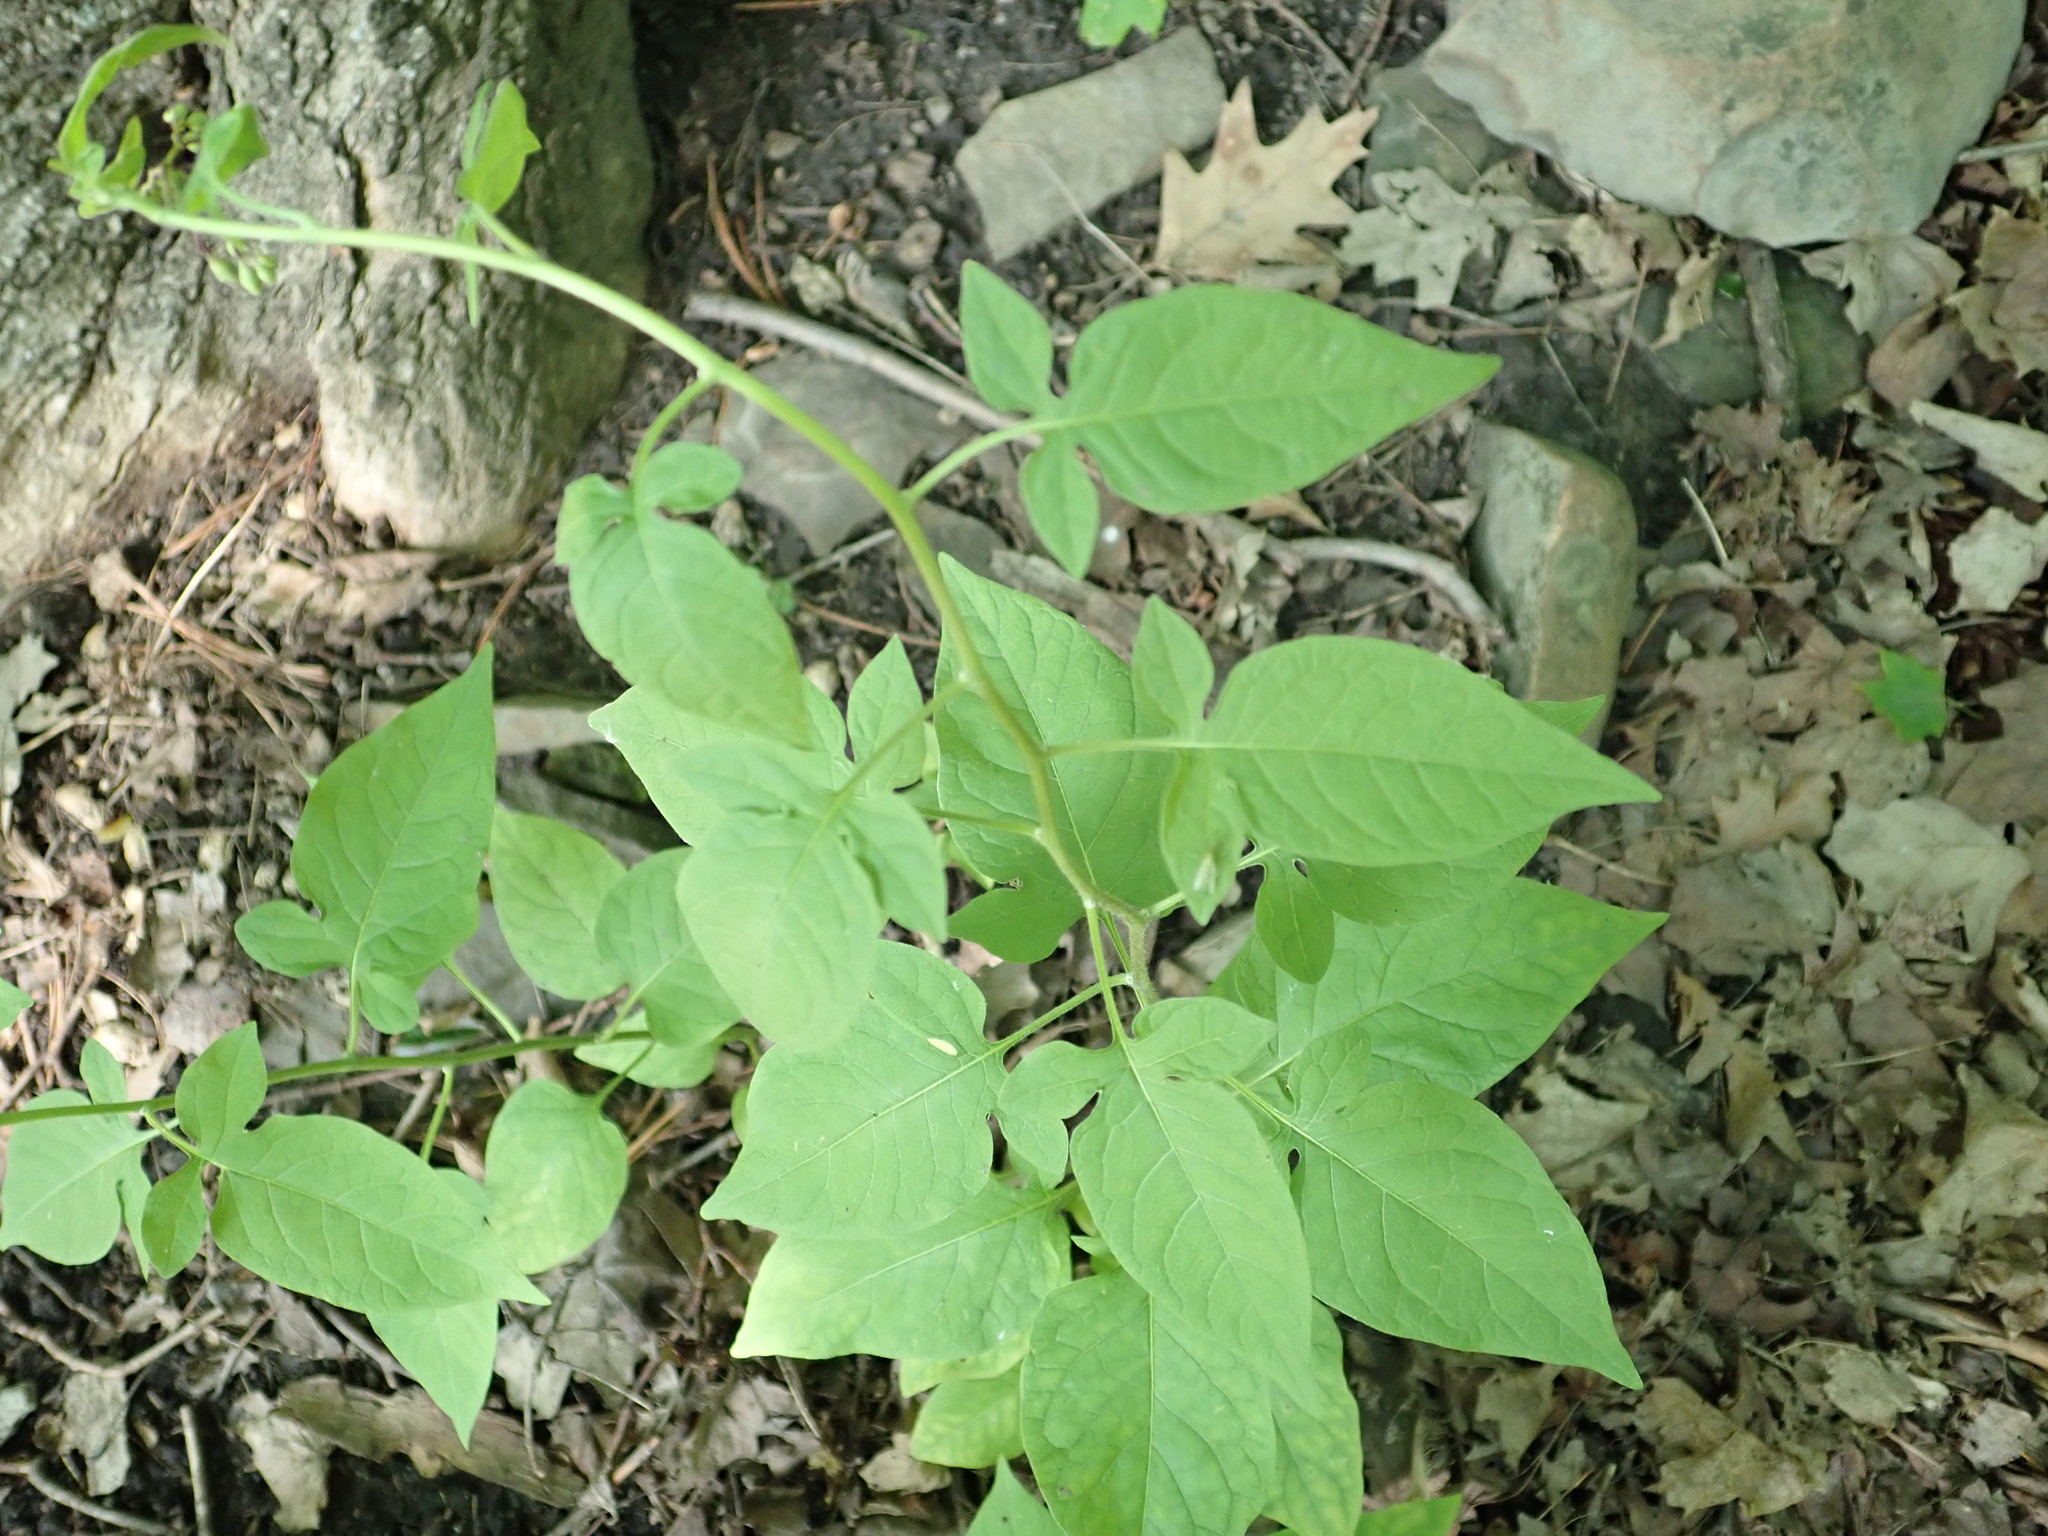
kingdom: Plantae
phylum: Tracheophyta
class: Magnoliopsida
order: Solanales
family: Solanaceae
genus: Solanum
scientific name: Solanum dulcamara
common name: Climbing nightshade
